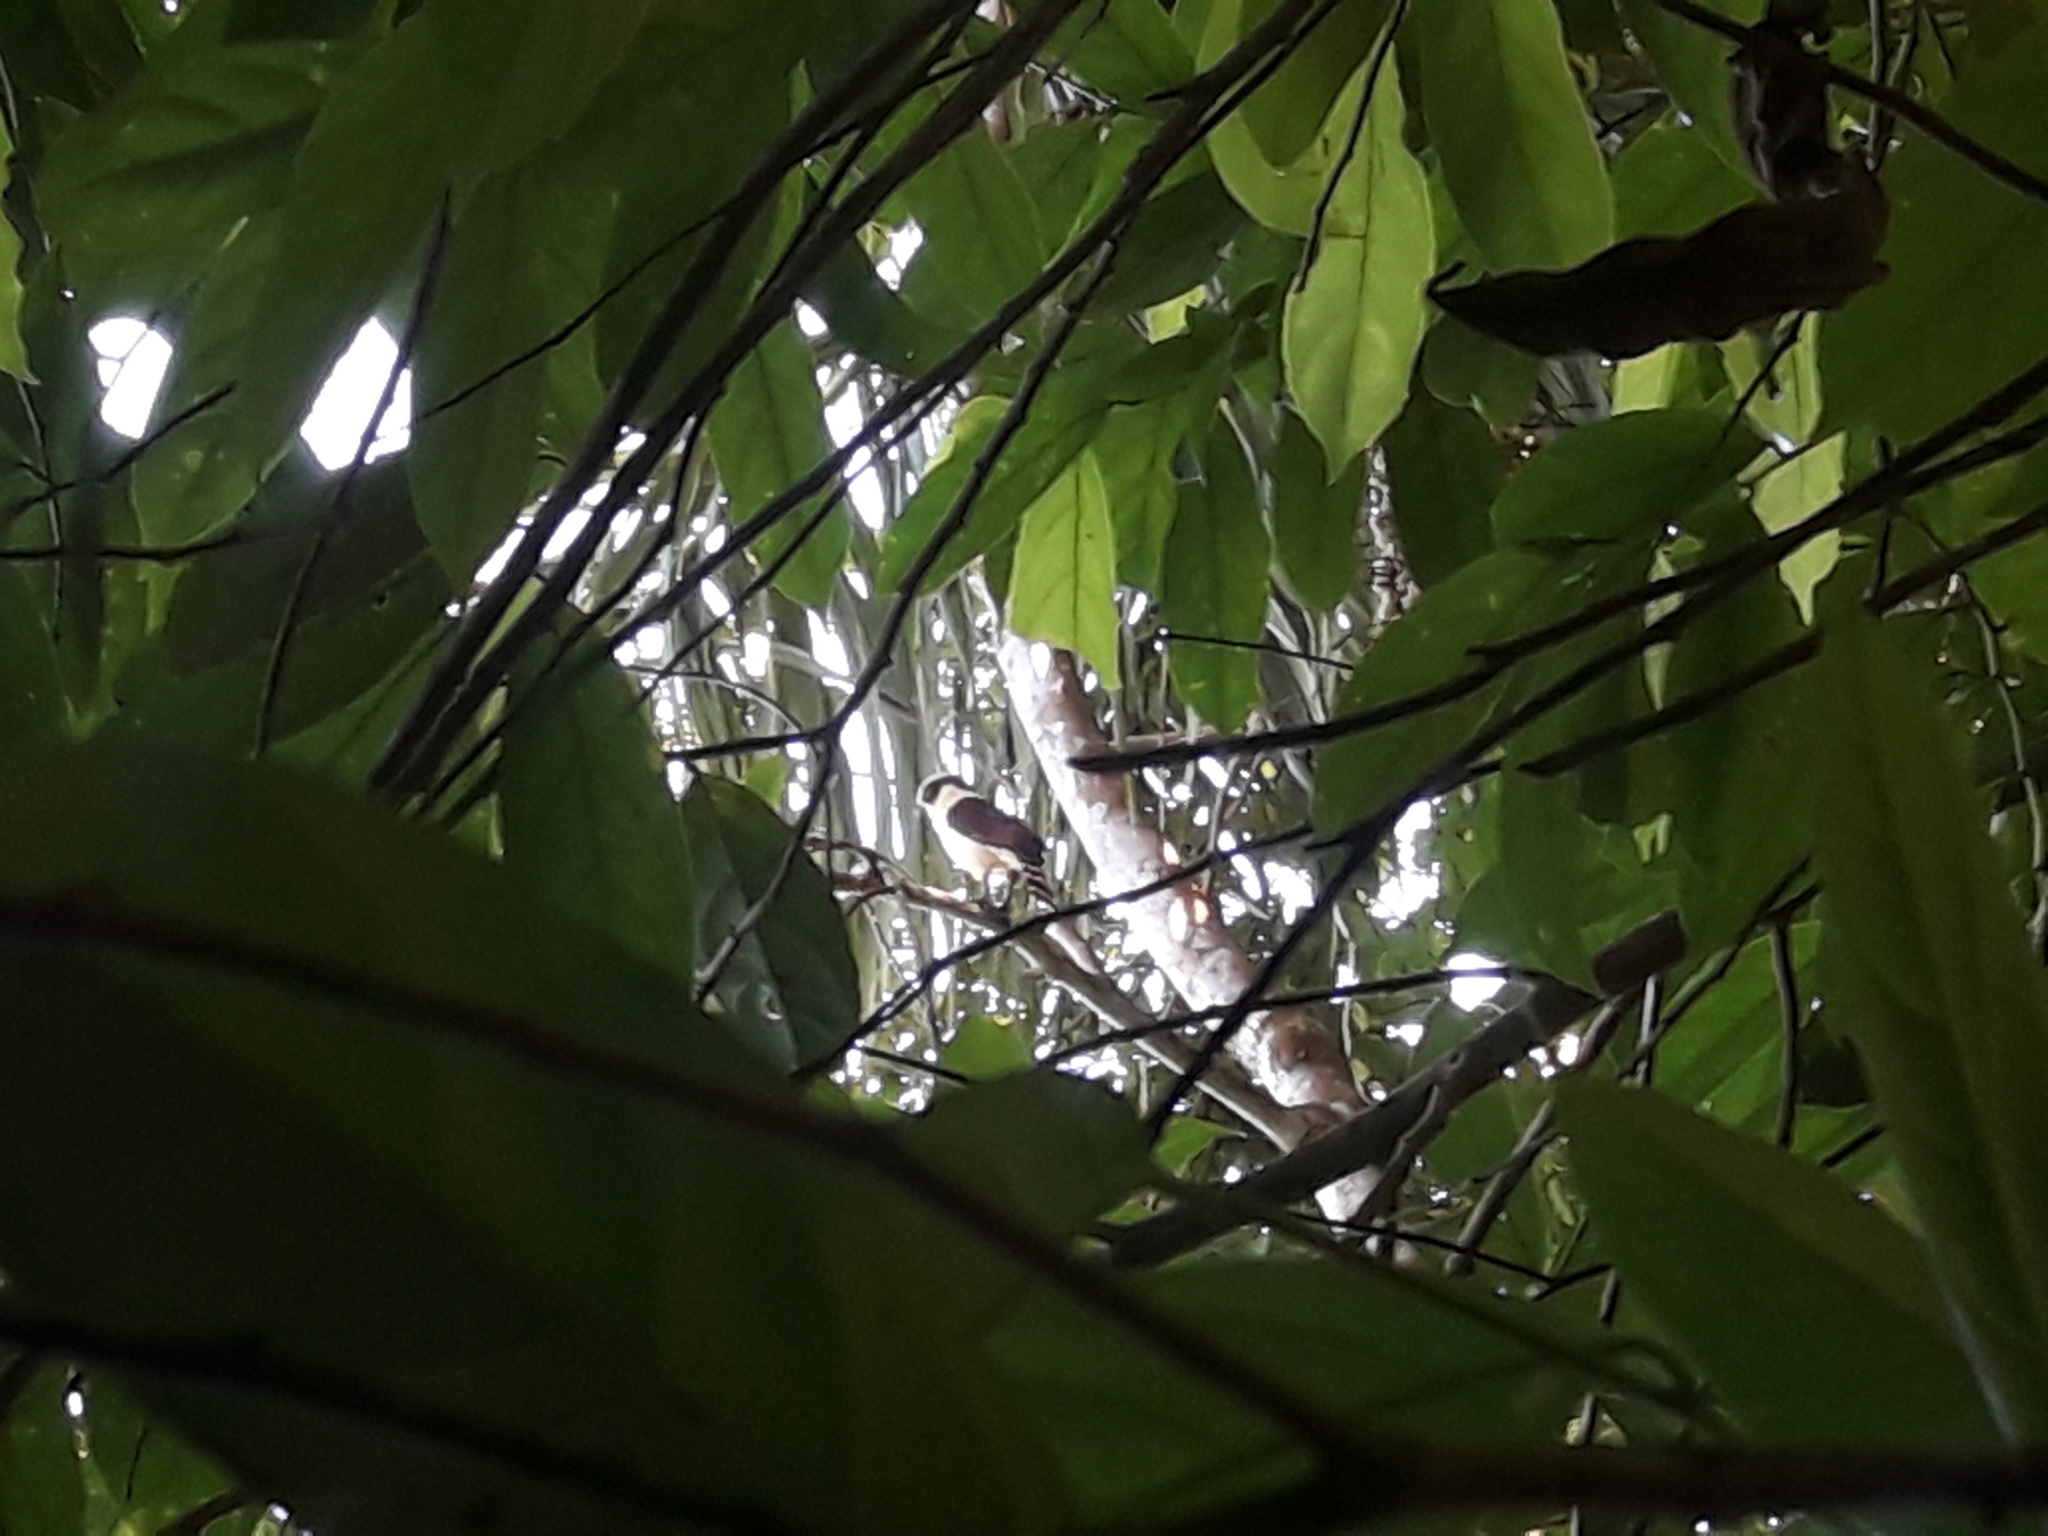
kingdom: Animalia
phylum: Chordata
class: Aves
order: Falconiformes
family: Falconidae
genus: Herpetotheres
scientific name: Herpetotheres cachinnans
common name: Laughing falcon
